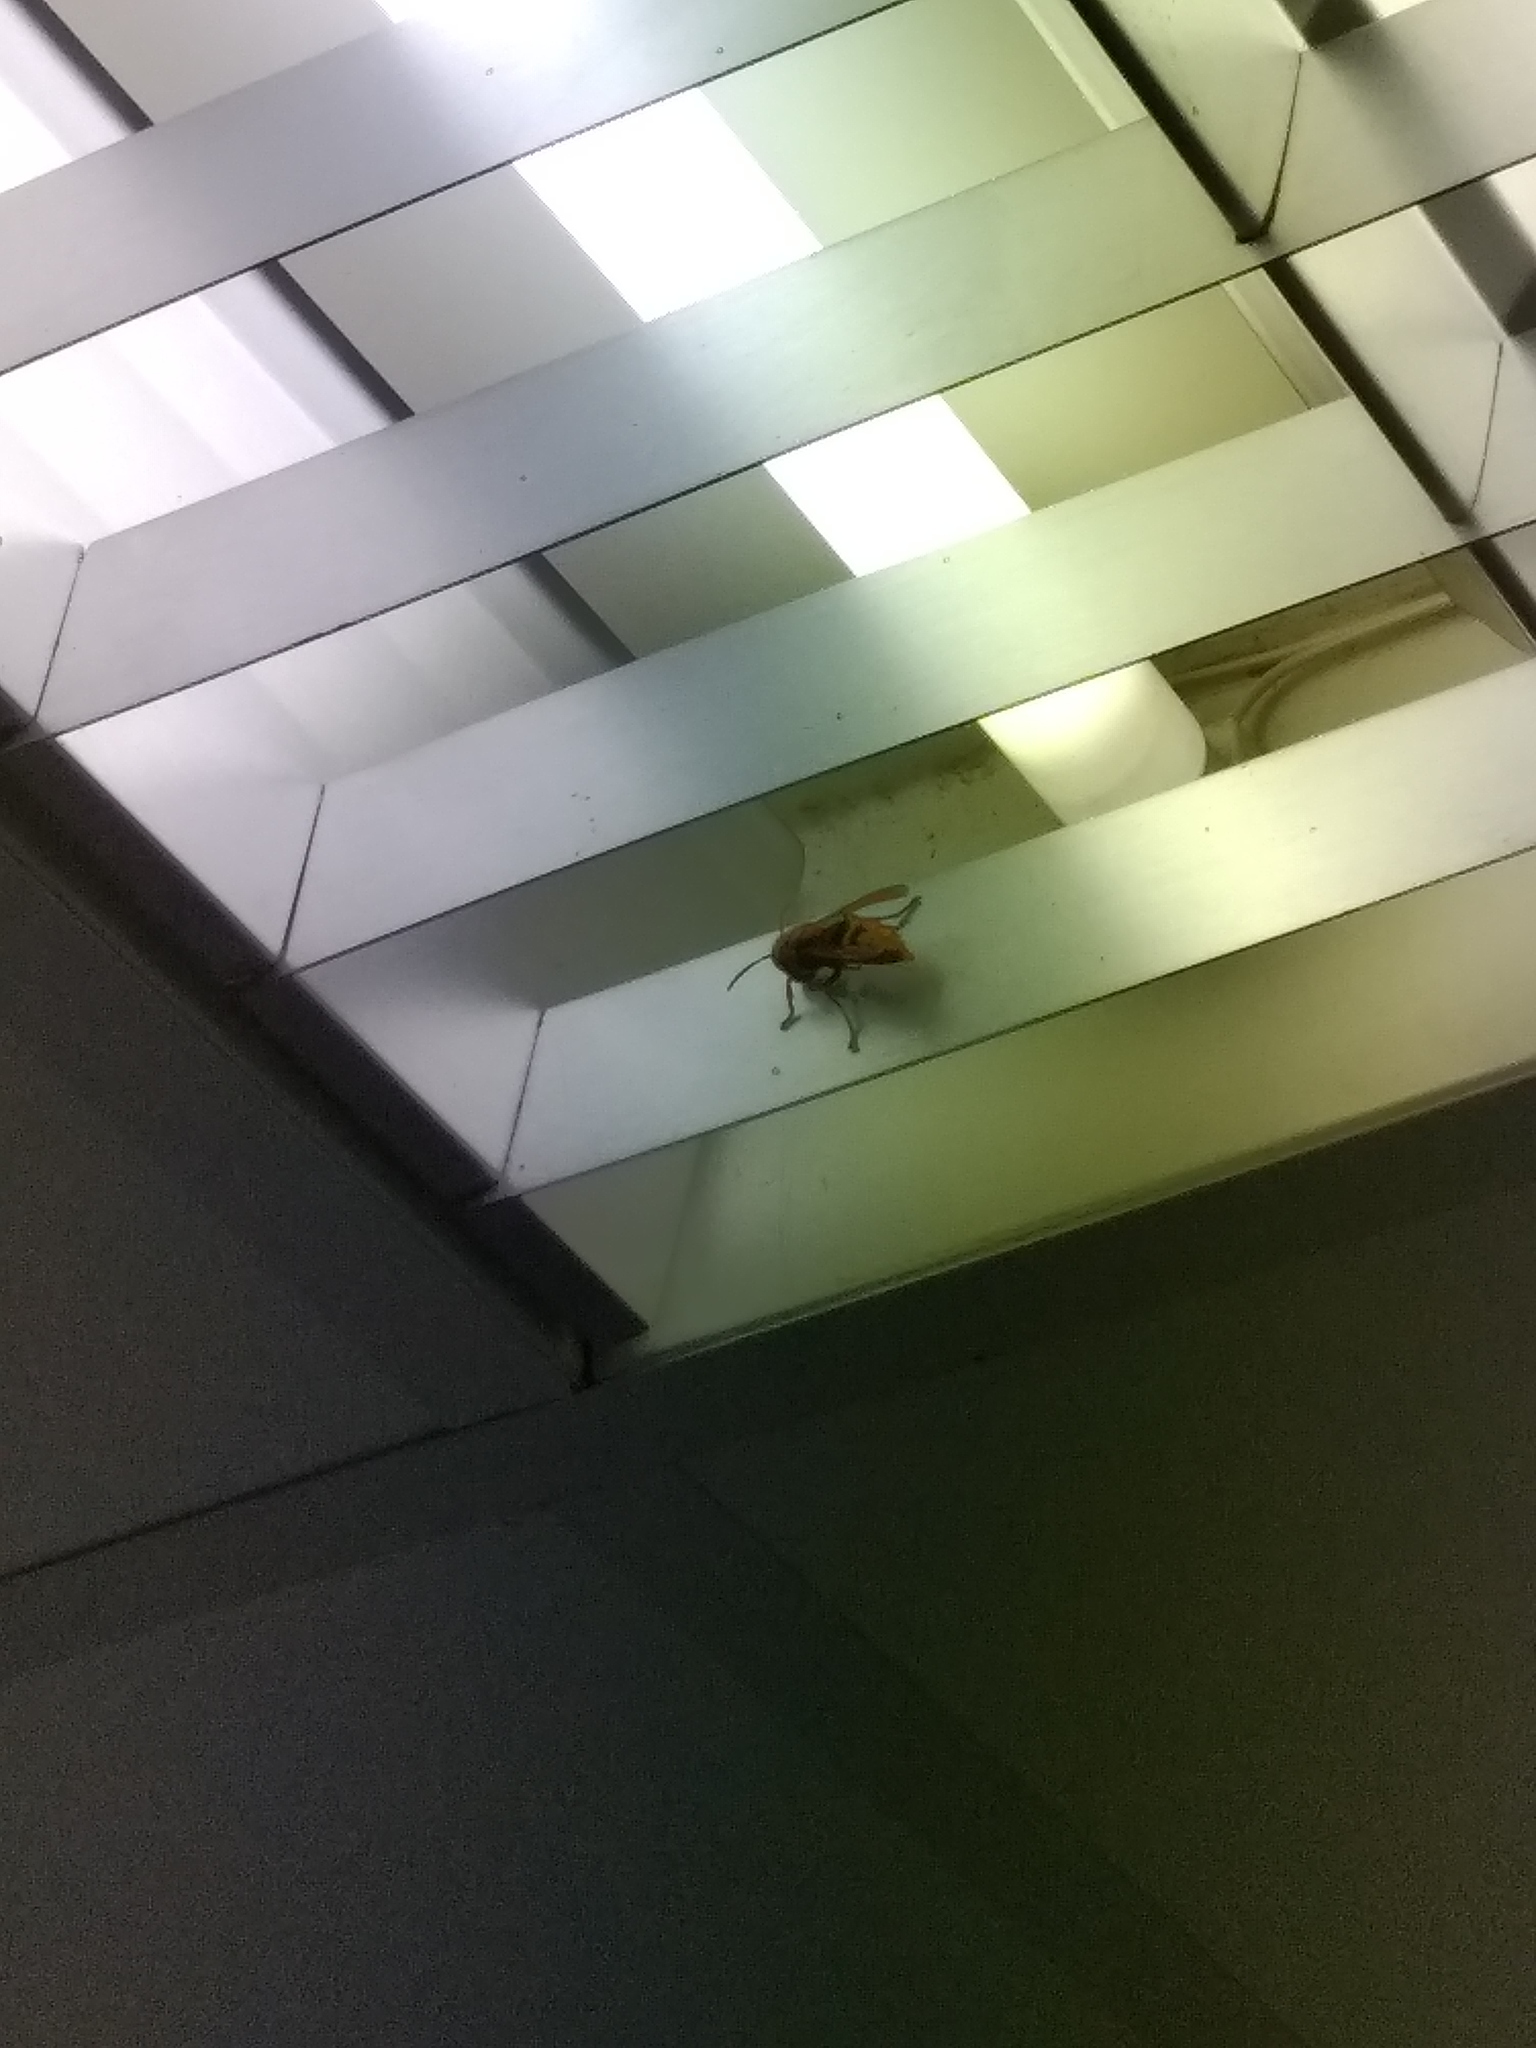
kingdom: Animalia
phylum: Arthropoda
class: Insecta
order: Hymenoptera
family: Vespidae
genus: Vespa
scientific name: Vespa crabro
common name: Hornet
